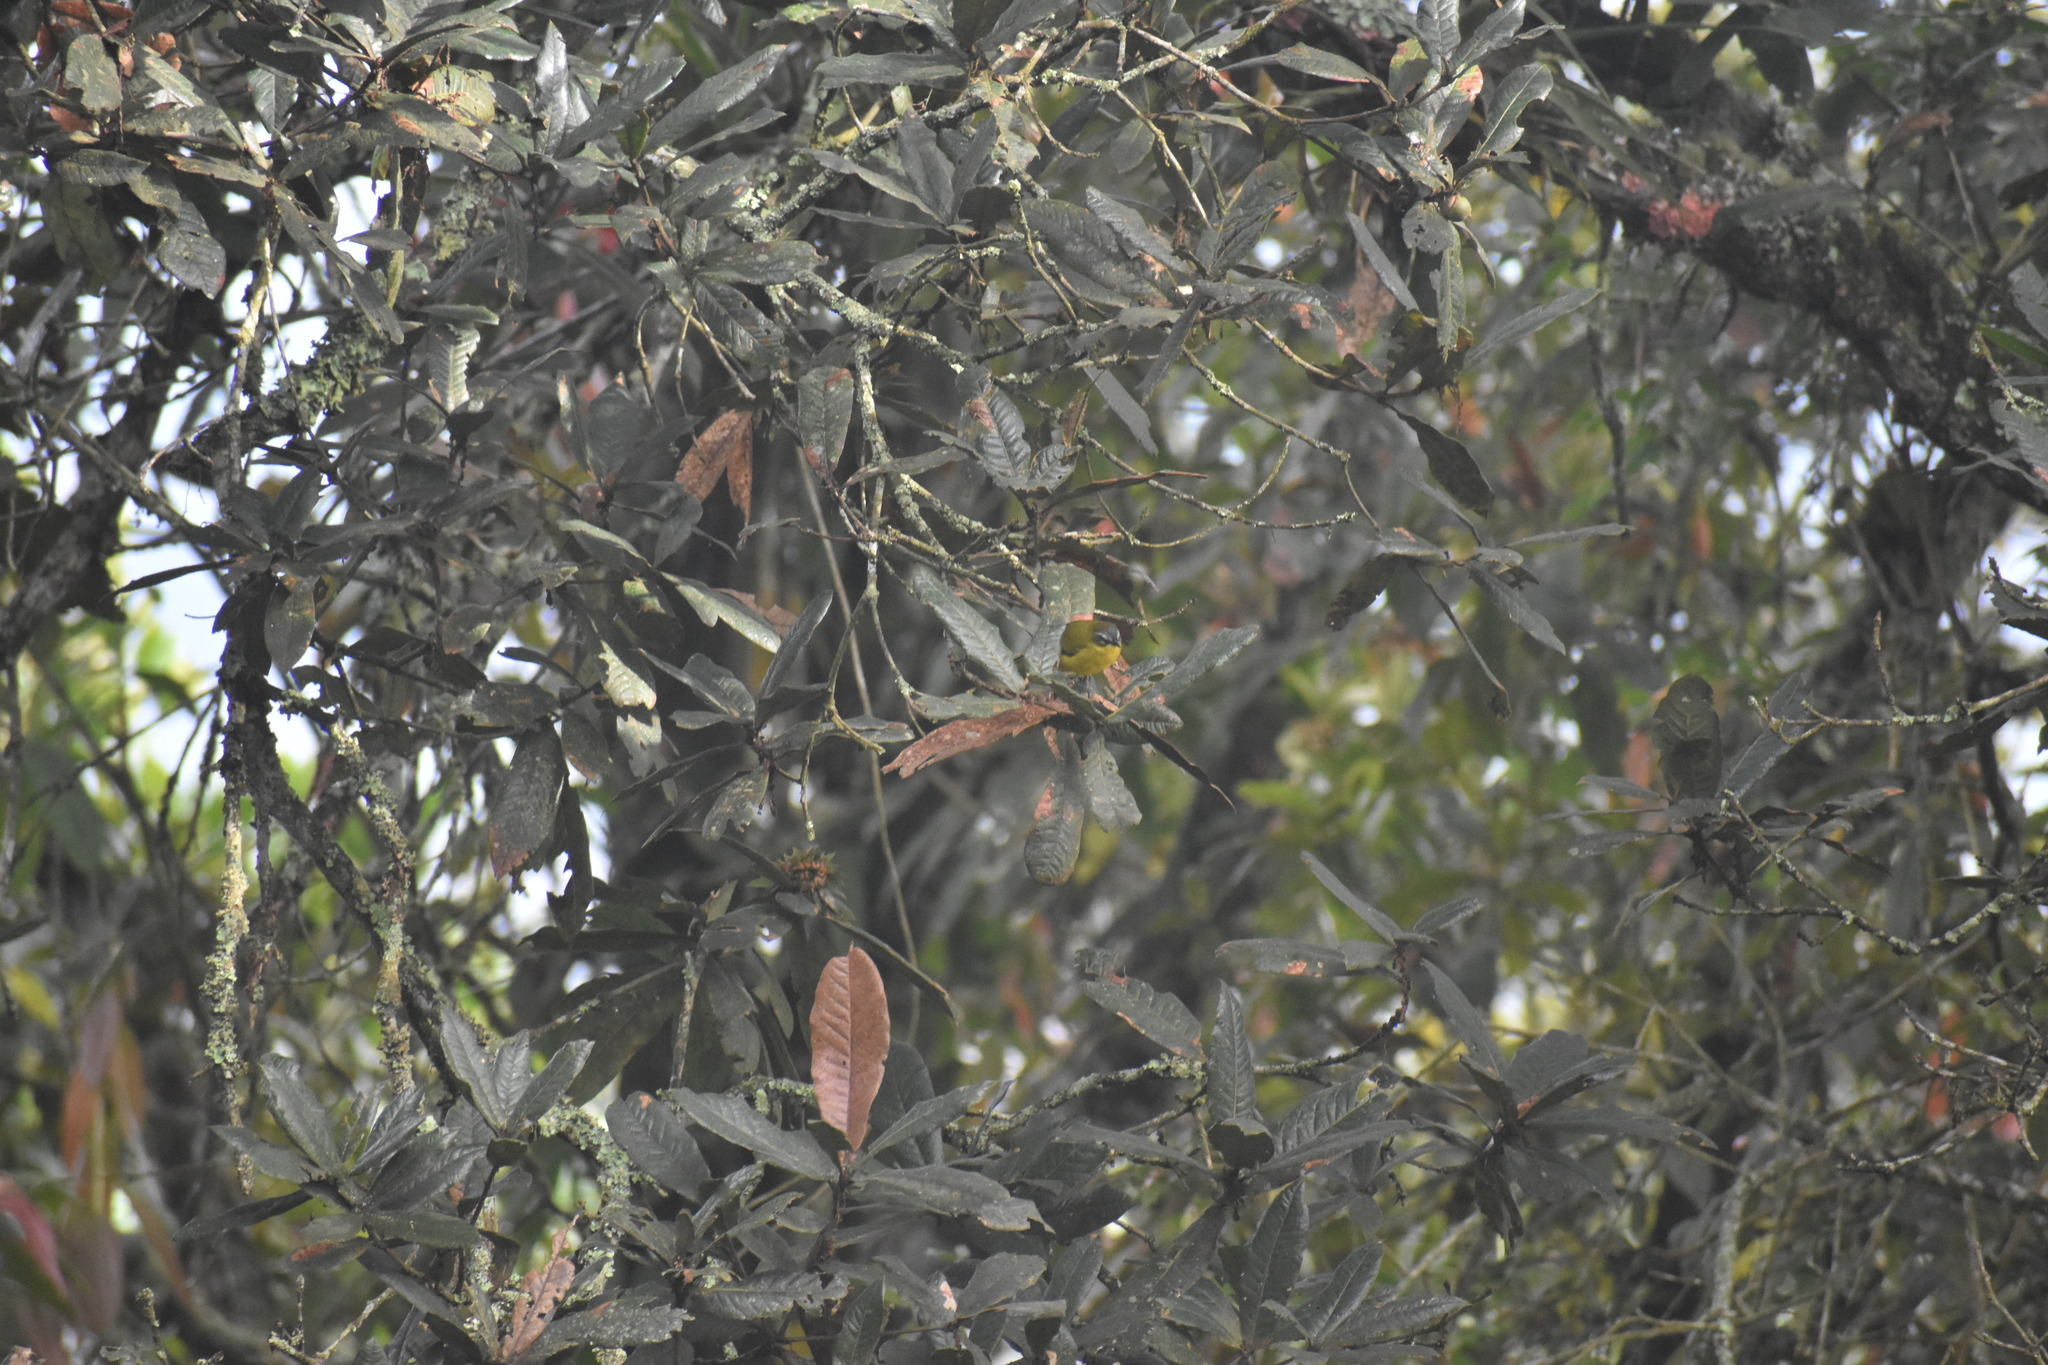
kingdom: Animalia
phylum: Chordata
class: Aves
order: Passeriformes
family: Thraupidae
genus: Thlypopsis
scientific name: Thlypopsis superciliaris
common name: Superciliaried hemispingus
